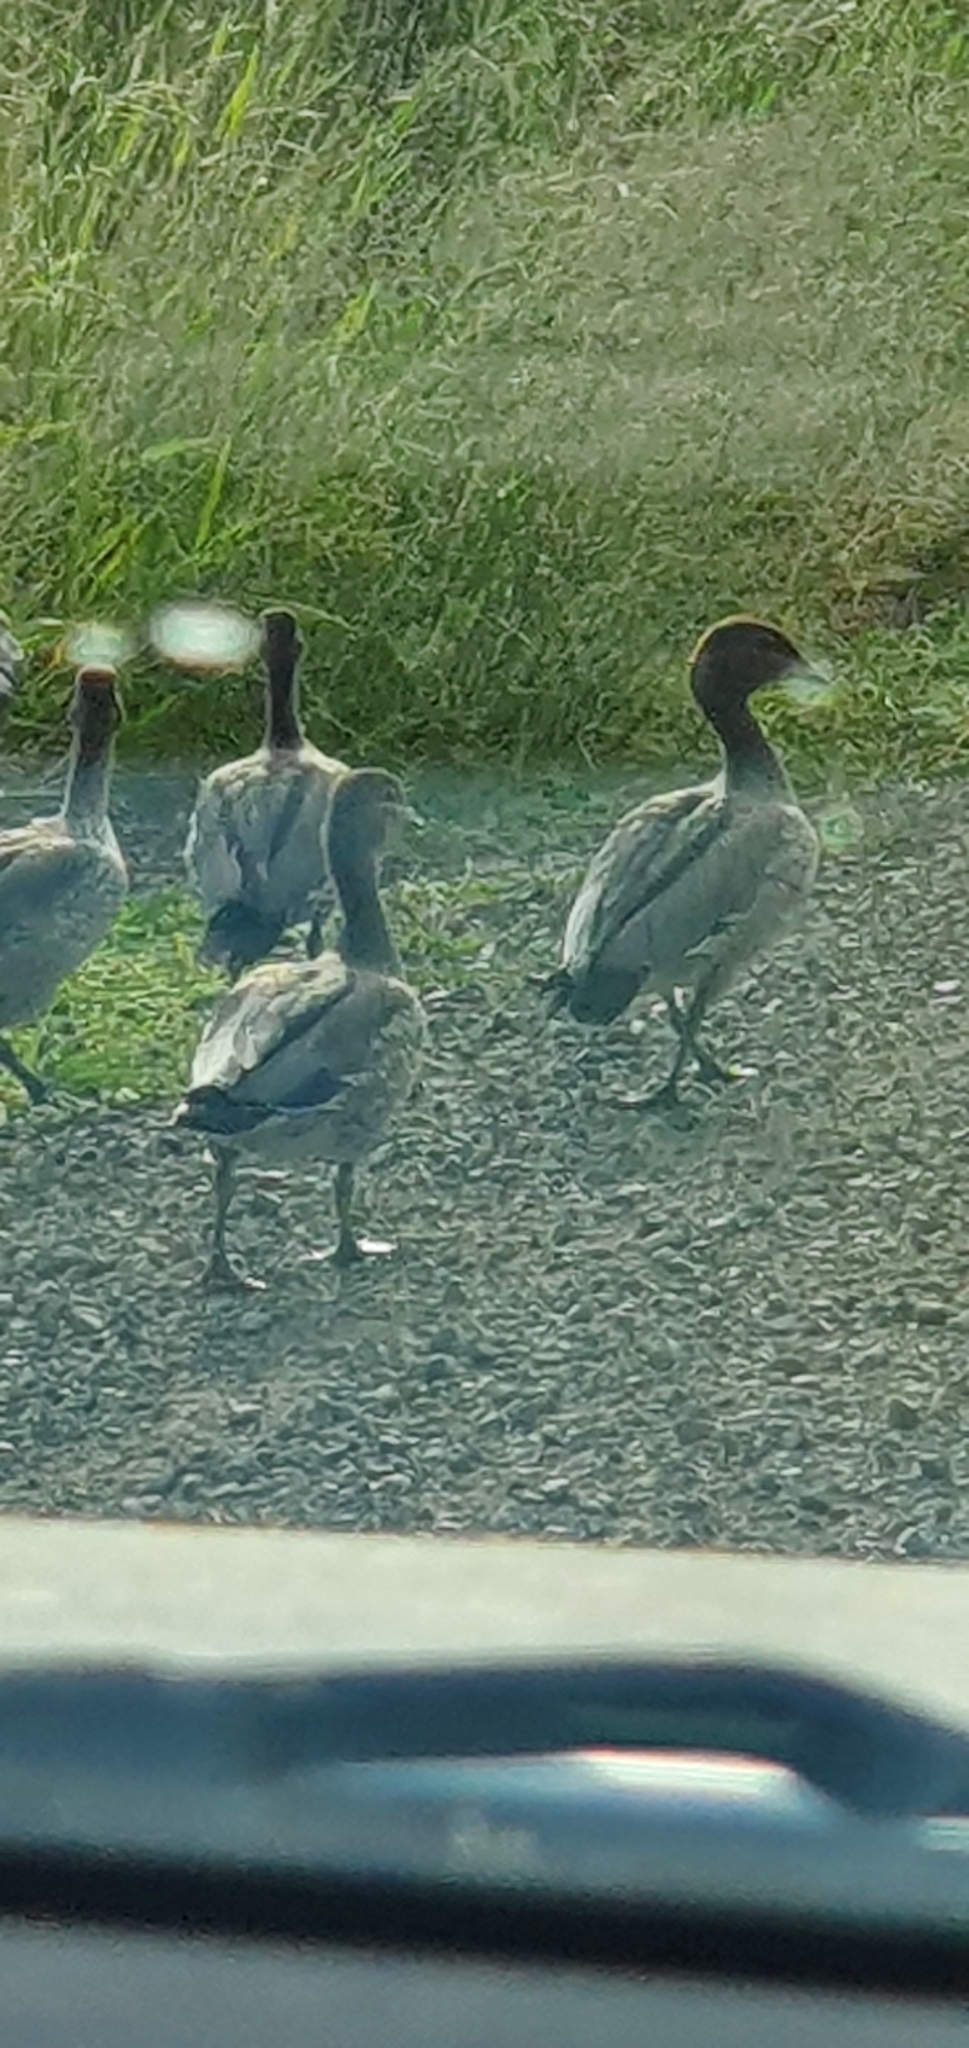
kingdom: Animalia
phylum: Chordata
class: Aves
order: Anseriformes
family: Anatidae
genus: Chenonetta
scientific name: Chenonetta jubata
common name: Maned duck
